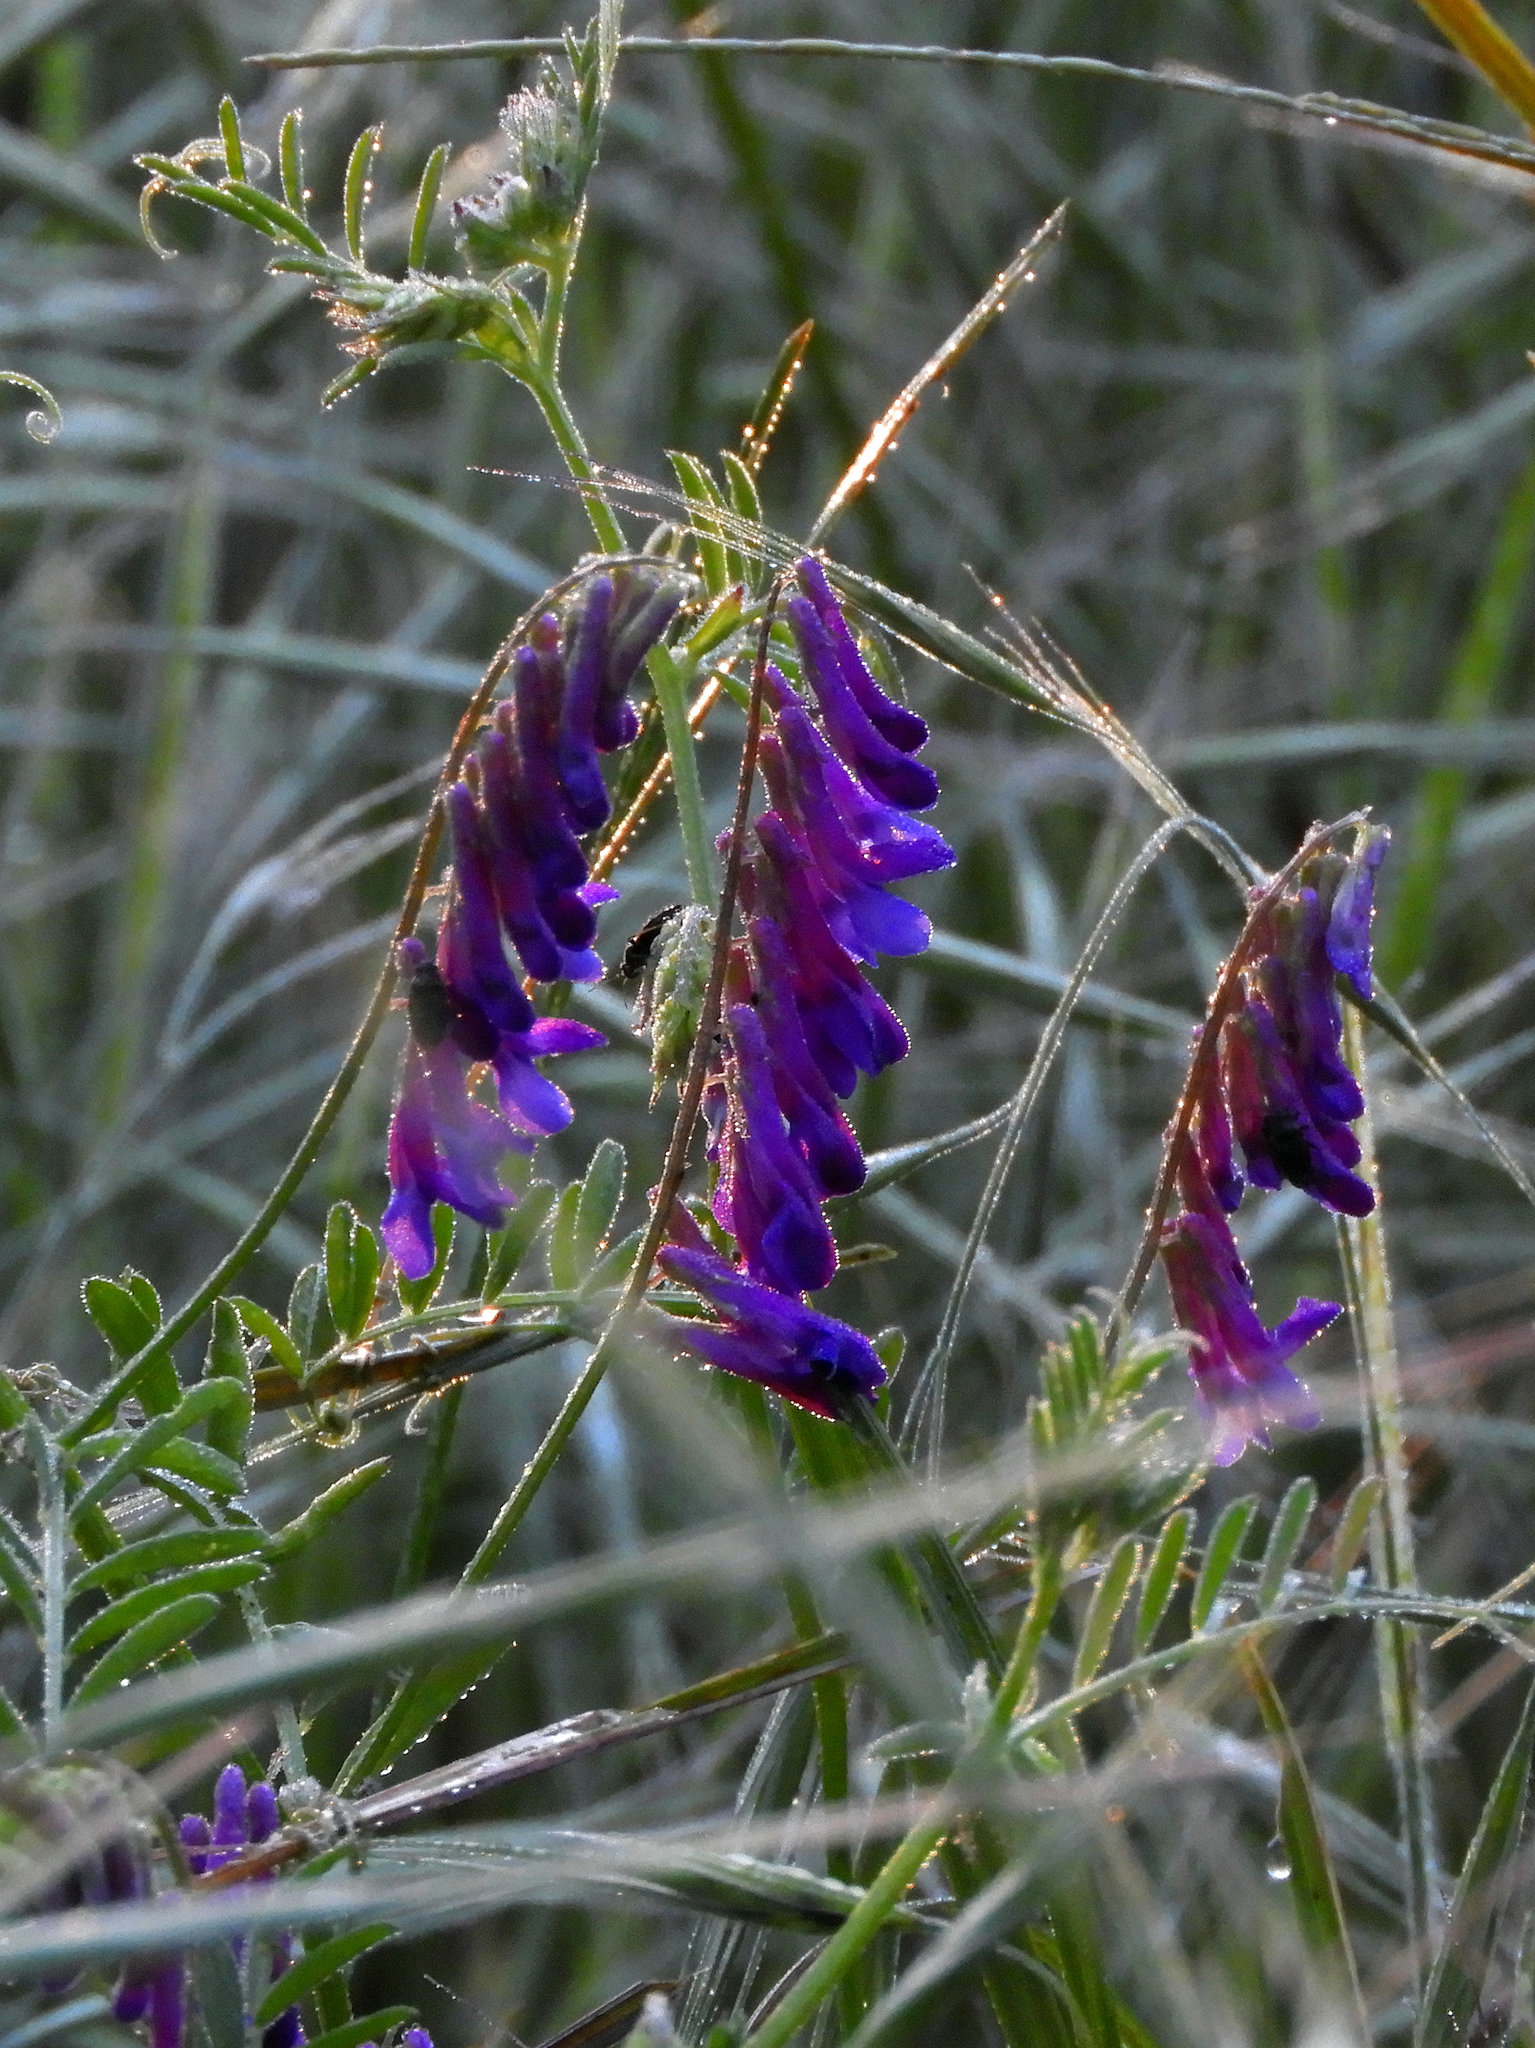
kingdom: Plantae
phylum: Tracheophyta
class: Magnoliopsida
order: Fabales
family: Fabaceae
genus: Vicia
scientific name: Vicia villosa
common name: Fodder vetch
